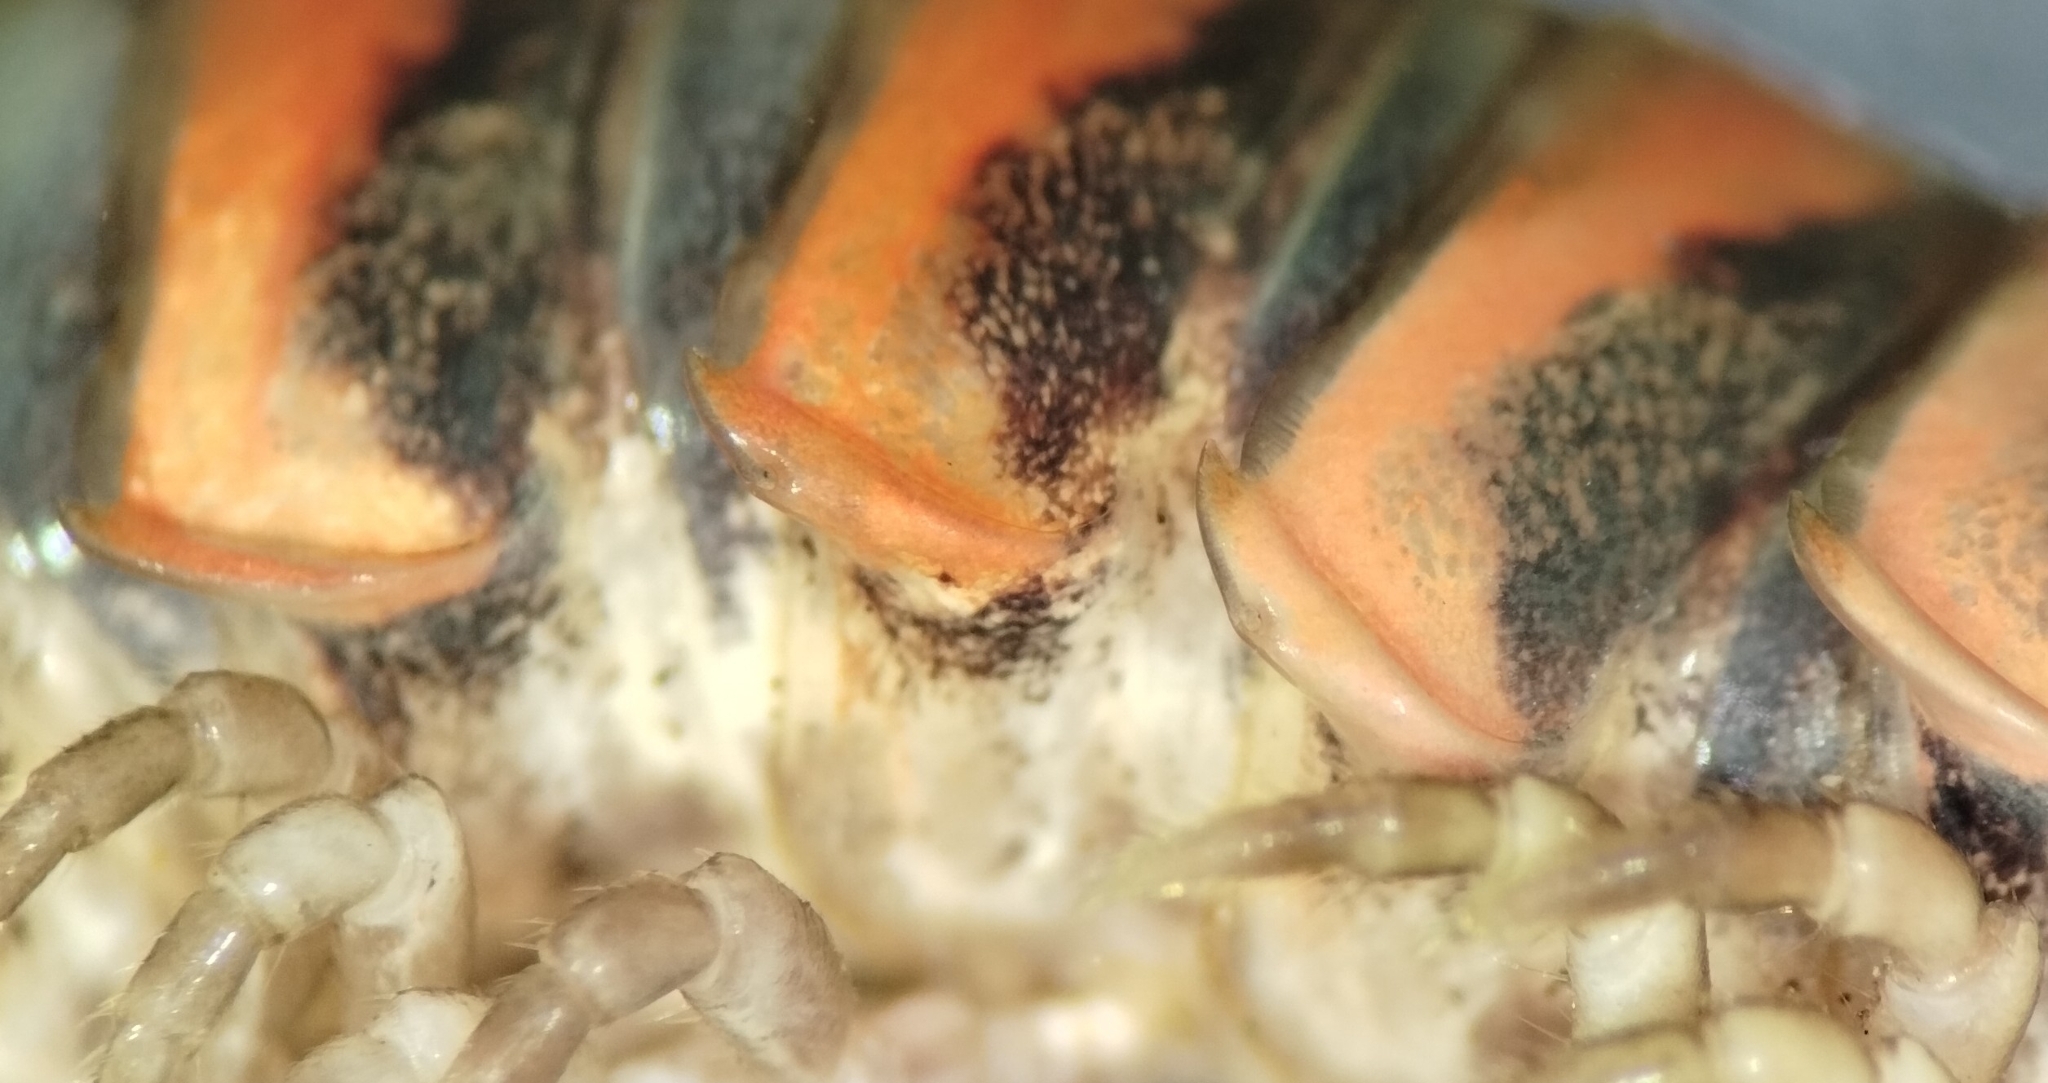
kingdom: Animalia
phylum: Arthropoda
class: Diplopoda
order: Polydesmida
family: Xystodesmidae
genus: Oenomaea
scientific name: Oenomaea pulchella
